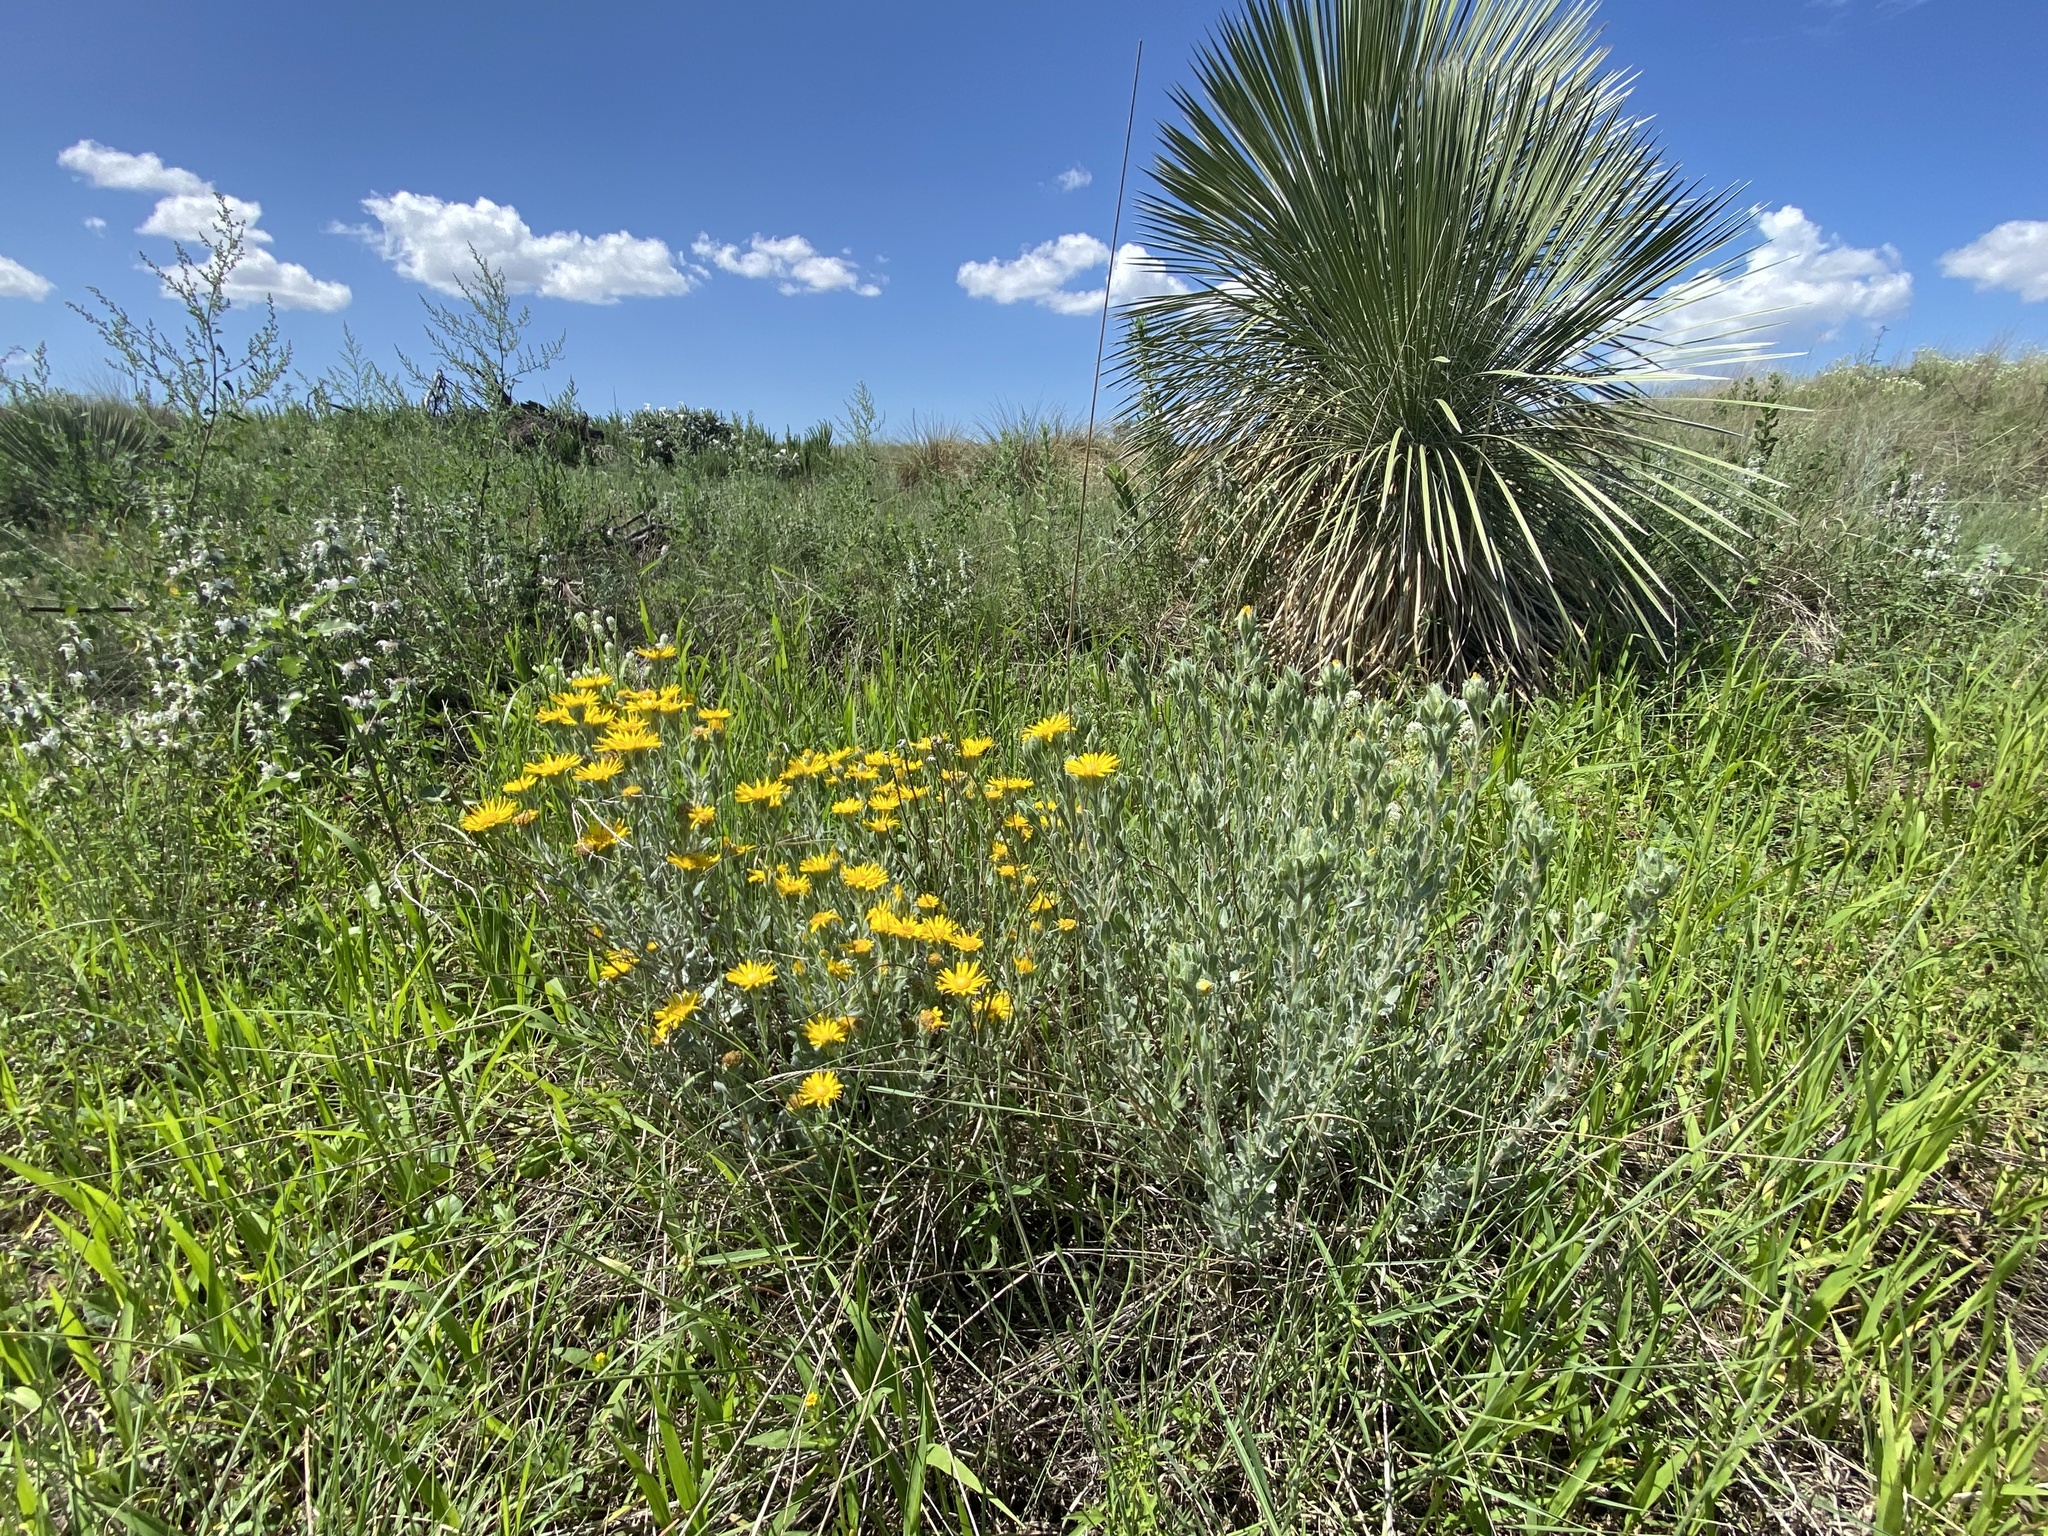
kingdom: Plantae
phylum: Tracheophyta
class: Magnoliopsida
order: Asterales
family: Asteraceae
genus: Heterotheca
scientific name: Heterotheca rutteri
